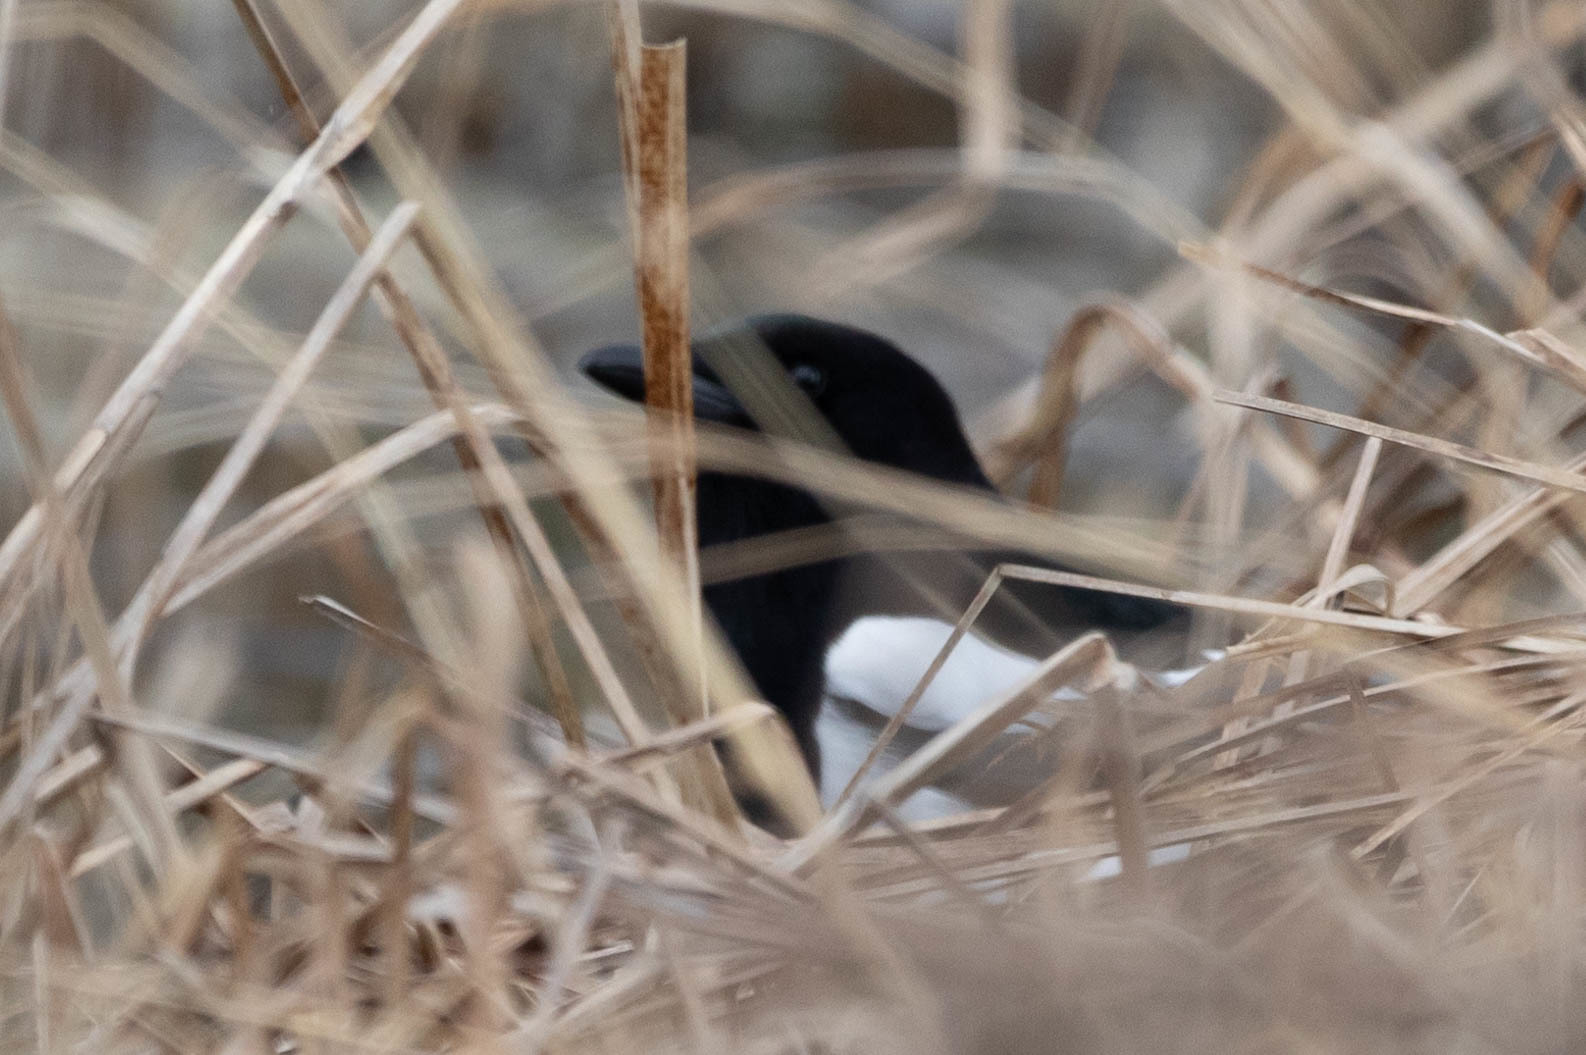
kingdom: Animalia
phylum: Chordata
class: Aves
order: Passeriformes
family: Corvidae
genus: Pica
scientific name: Pica hudsonia
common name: Black-billed magpie
